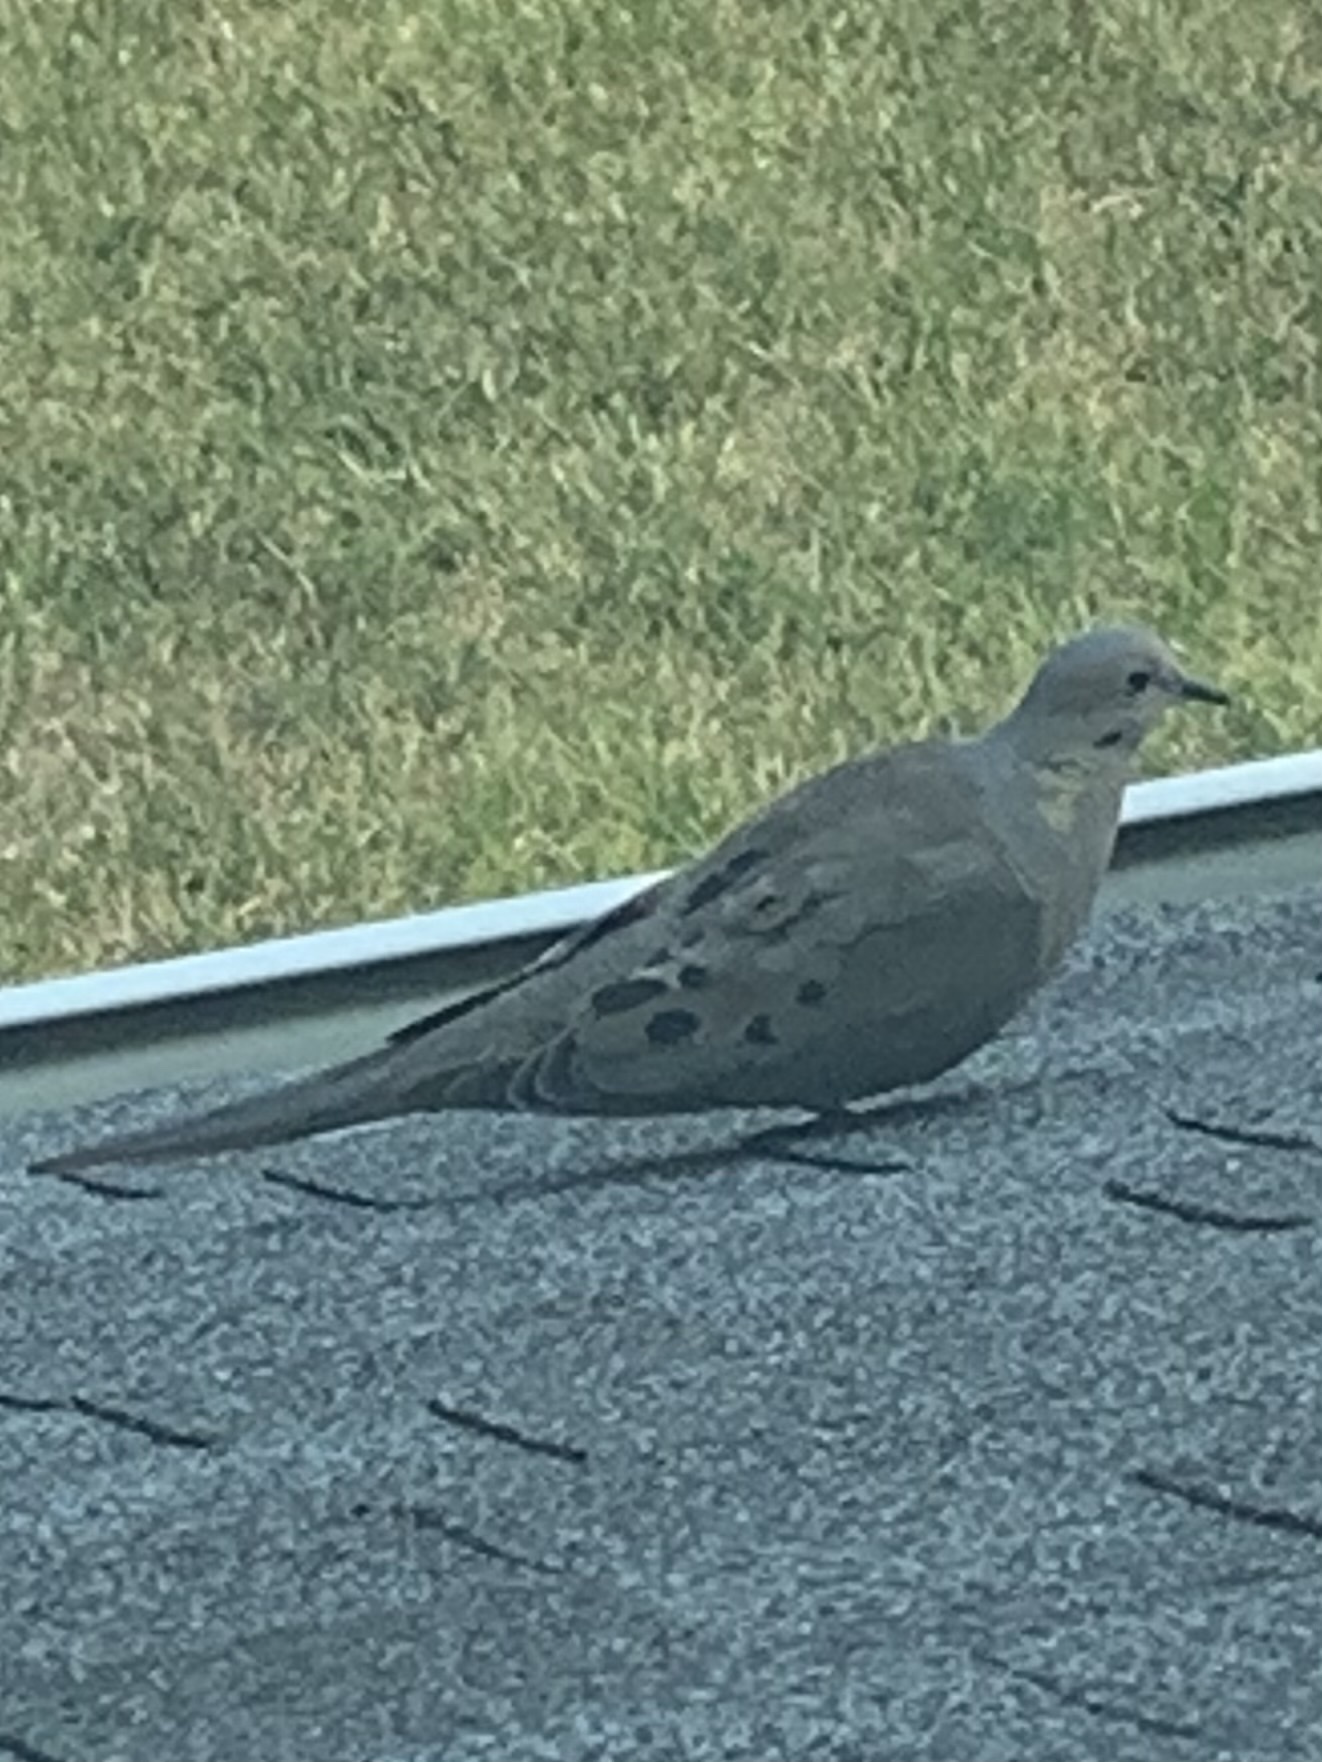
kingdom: Animalia
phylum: Chordata
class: Aves
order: Columbiformes
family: Columbidae
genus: Zenaida
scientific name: Zenaida macroura
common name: Mourning dove
